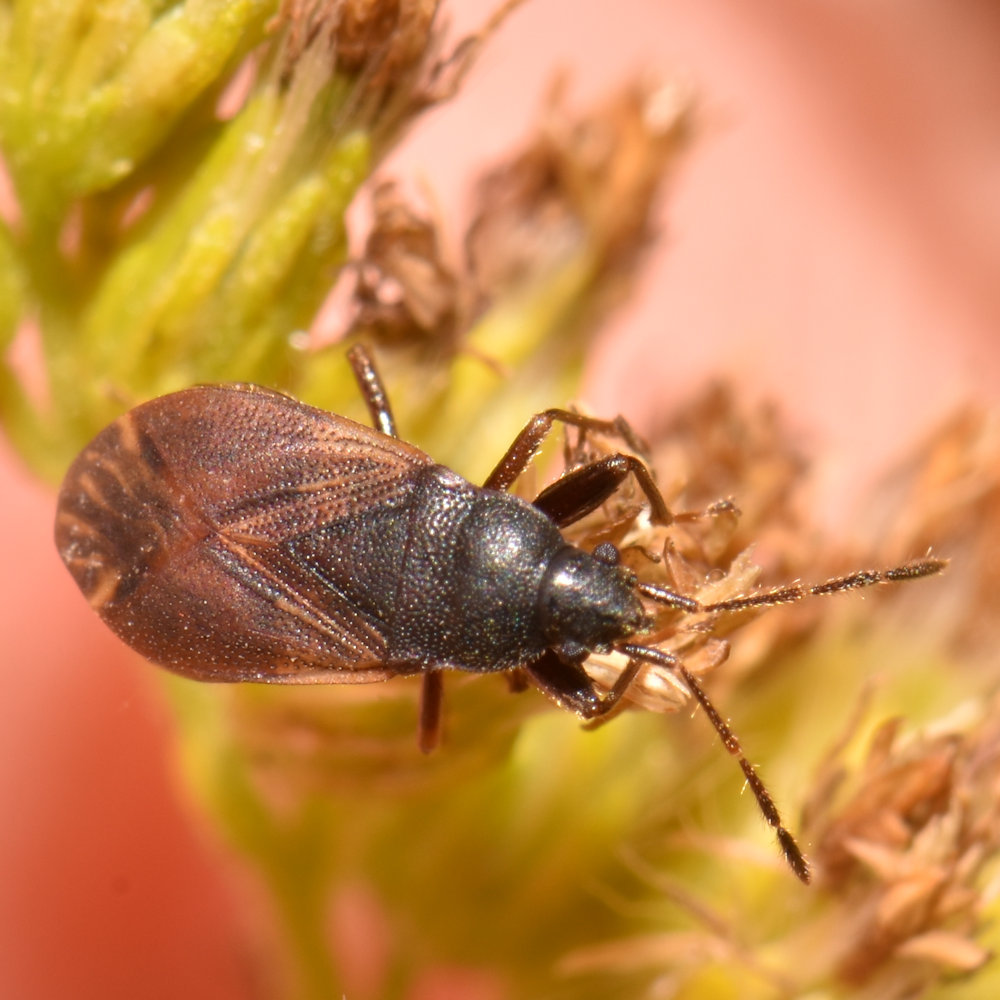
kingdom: Animalia
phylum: Arthropoda
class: Insecta
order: Hemiptera
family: Rhyparochromidae
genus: Drymus
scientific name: Drymus unus
